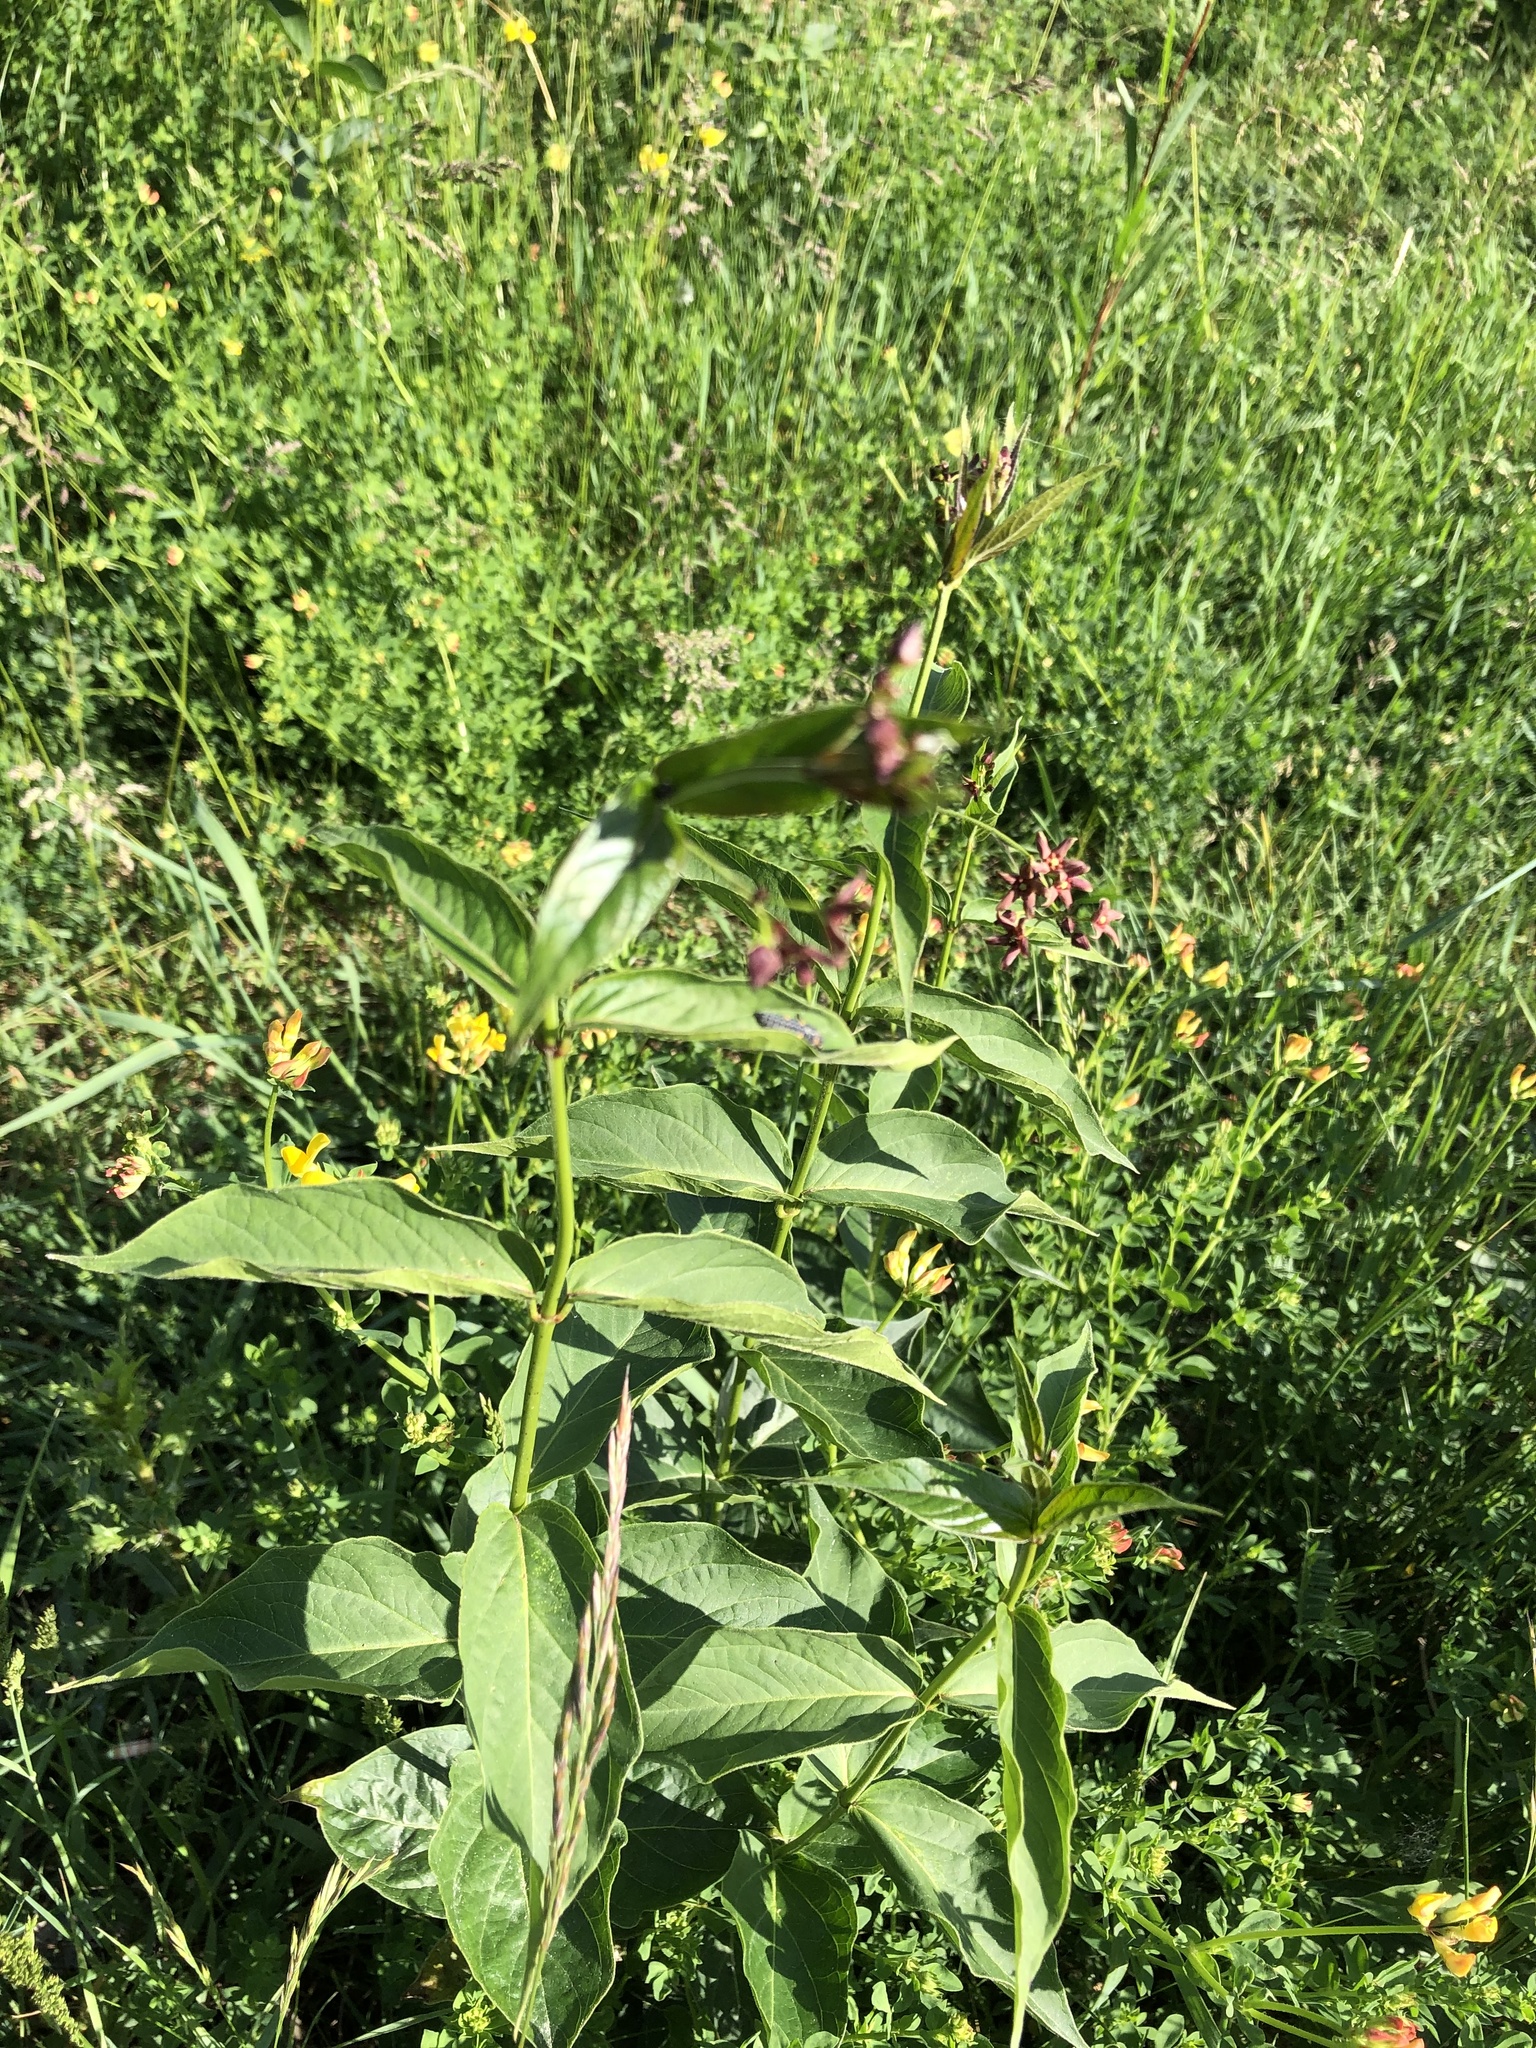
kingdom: Plantae
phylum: Tracheophyta
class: Magnoliopsida
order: Gentianales
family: Apocynaceae
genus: Vincetoxicum
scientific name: Vincetoxicum rossicum
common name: Dog-strangling vine
